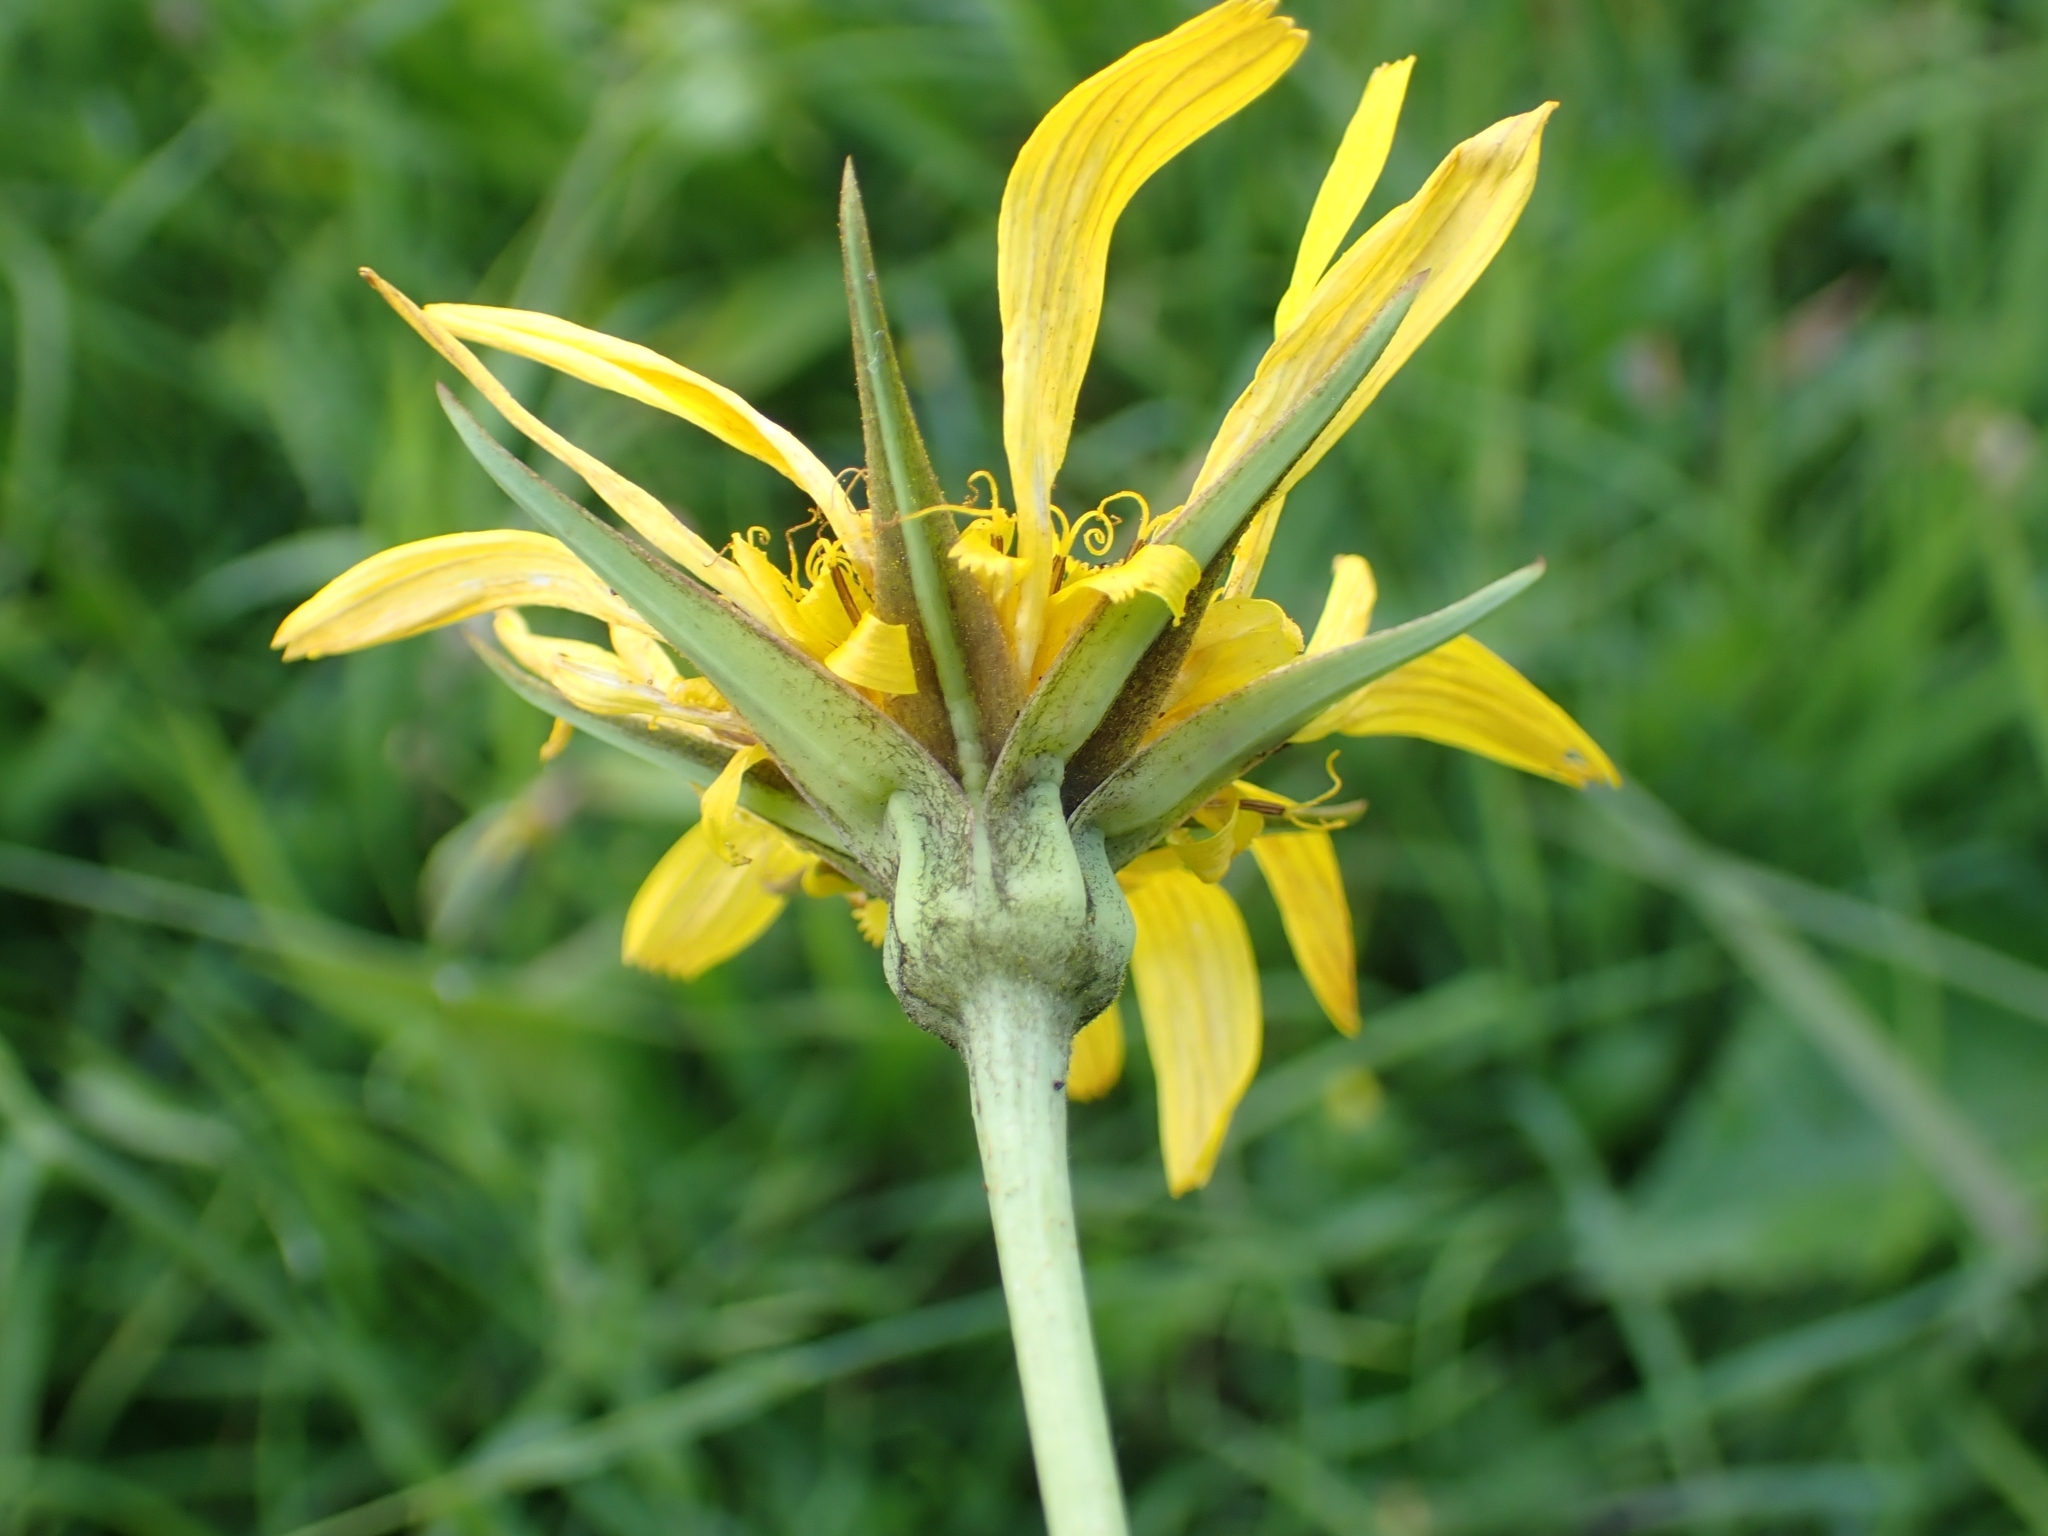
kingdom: Plantae
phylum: Tracheophyta
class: Magnoliopsida
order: Asterales
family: Asteraceae
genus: Tragopogon
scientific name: Tragopogon orientalis
